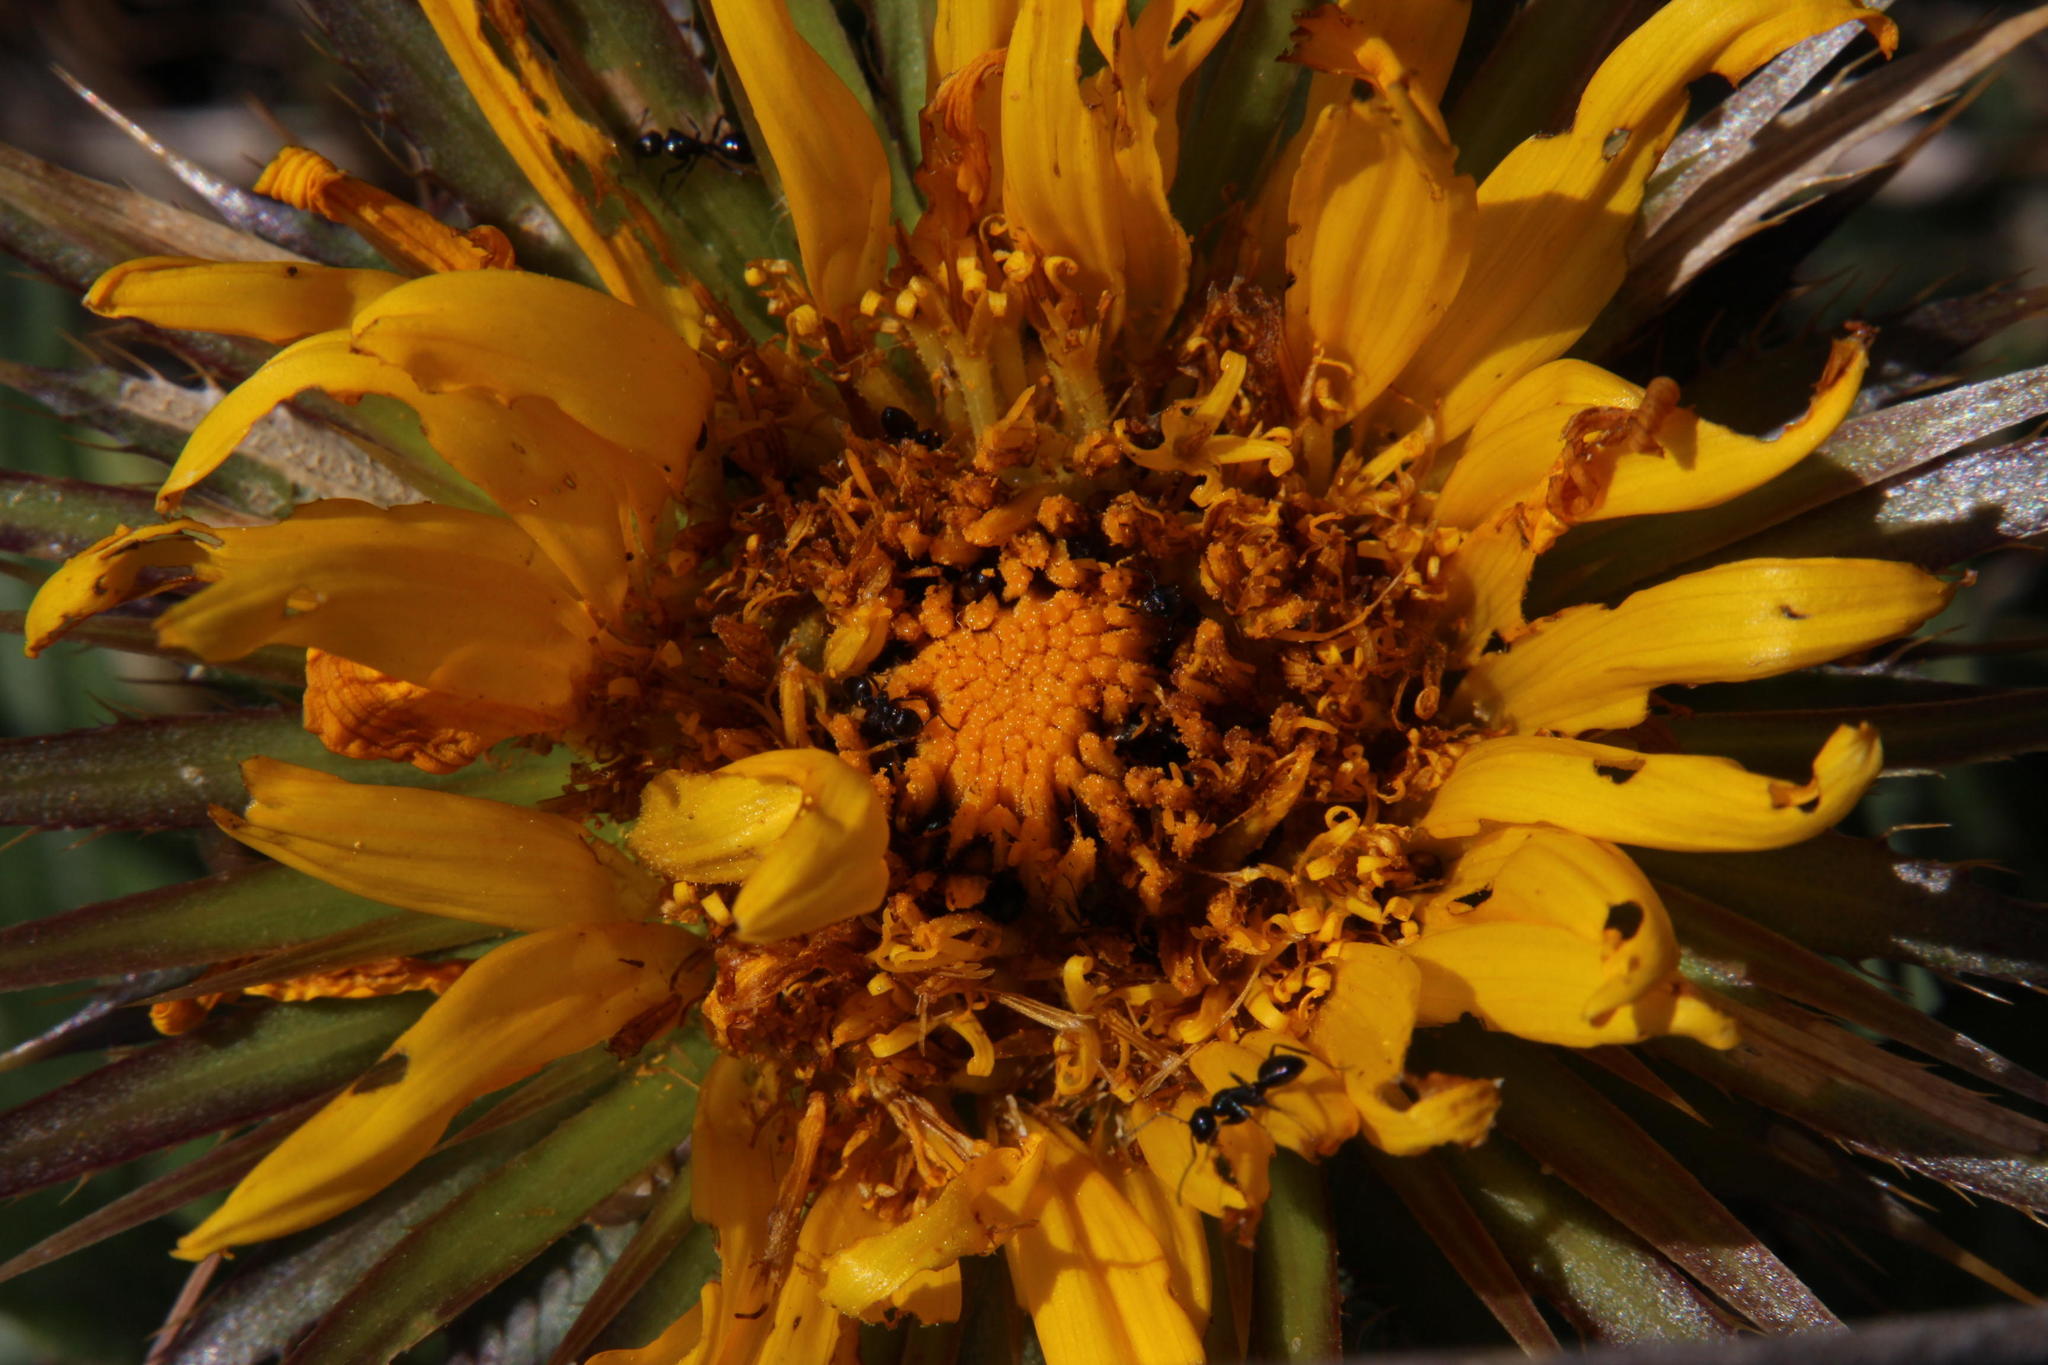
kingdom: Animalia
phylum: Arthropoda
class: Insecta
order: Hymenoptera
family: Formicidae
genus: Camponotus
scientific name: Camponotus werthi
